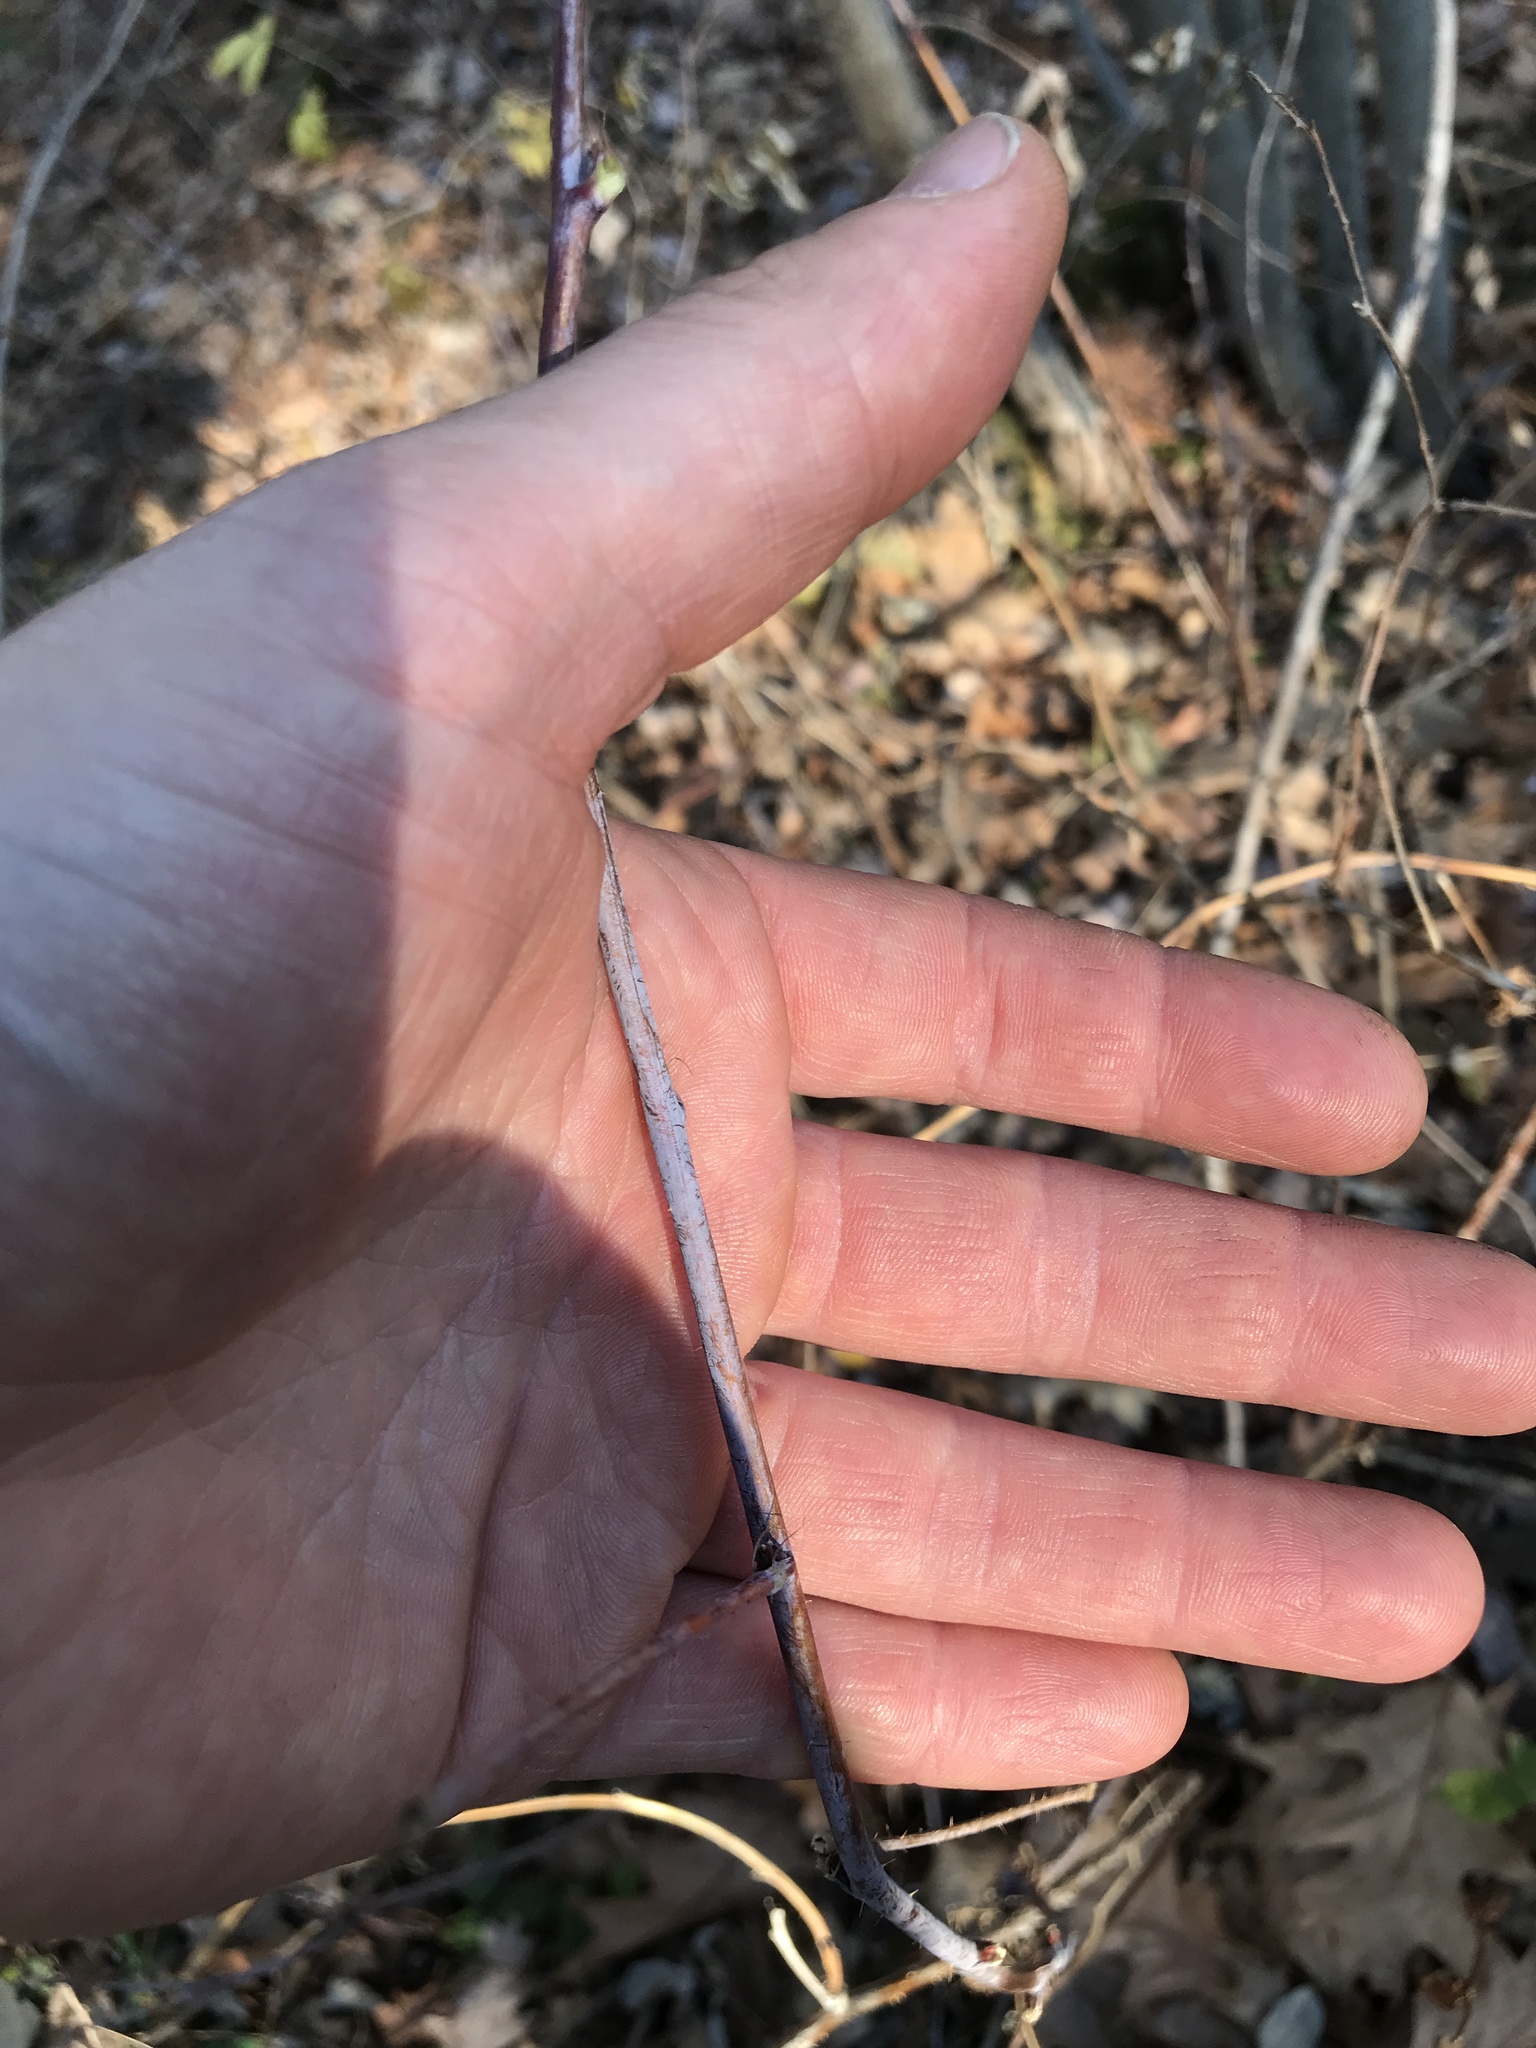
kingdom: Plantae
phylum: Tracheophyta
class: Magnoliopsida
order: Rosales
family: Rosaceae
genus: Rubus
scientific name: Rubus occidentalis
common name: Black raspberry
